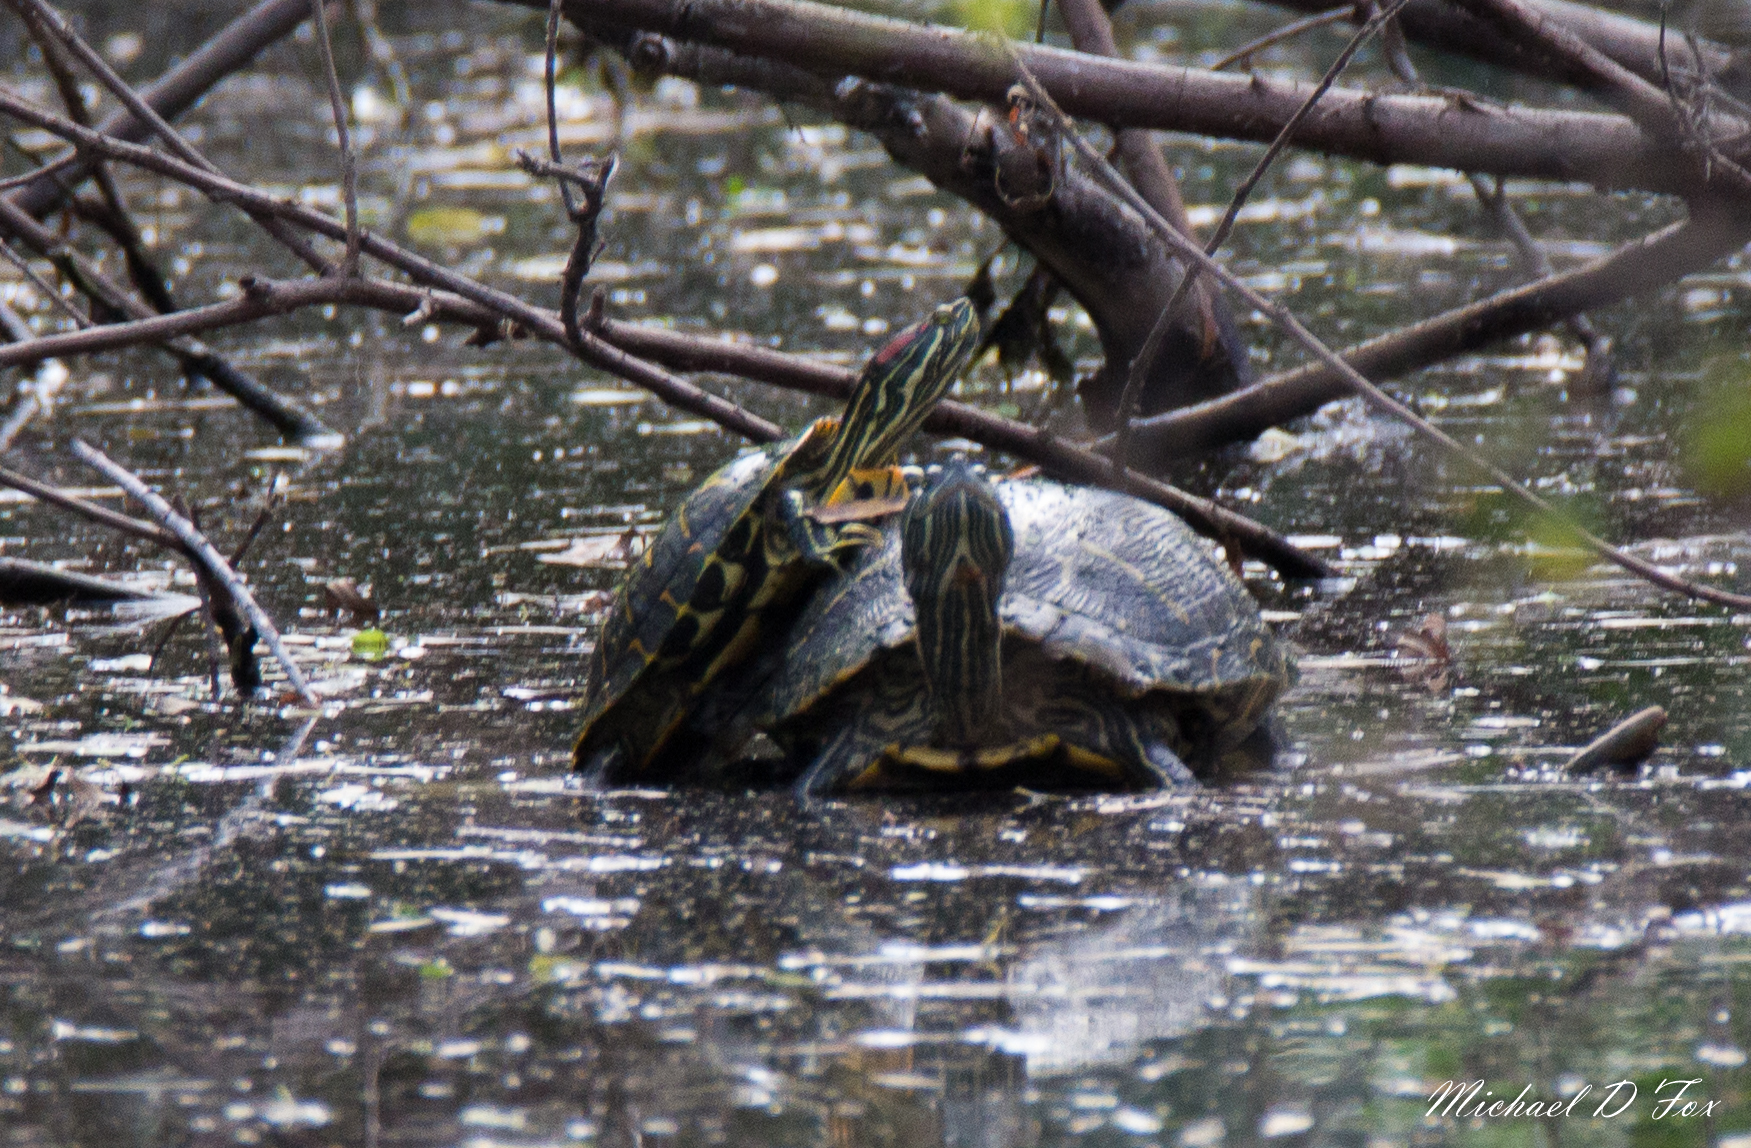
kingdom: Animalia
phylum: Chordata
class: Testudines
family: Emydidae
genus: Trachemys
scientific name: Trachemys scripta
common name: Slider
